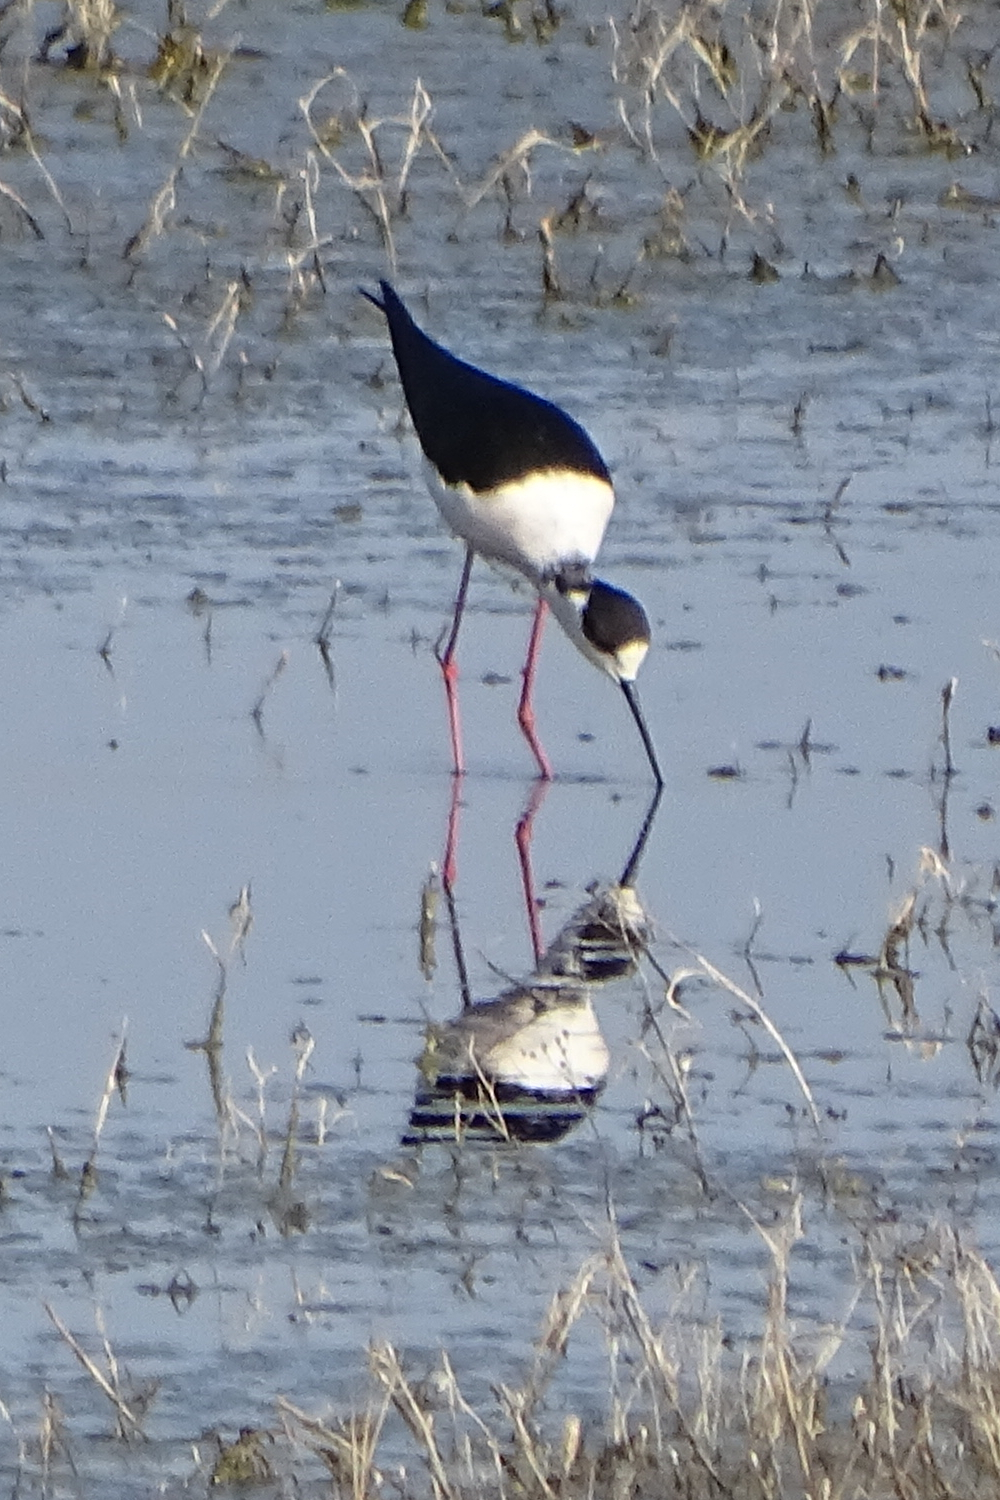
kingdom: Animalia
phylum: Chordata
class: Aves
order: Charadriiformes
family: Recurvirostridae
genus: Himantopus
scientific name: Himantopus himantopus
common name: Black-winged stilt
